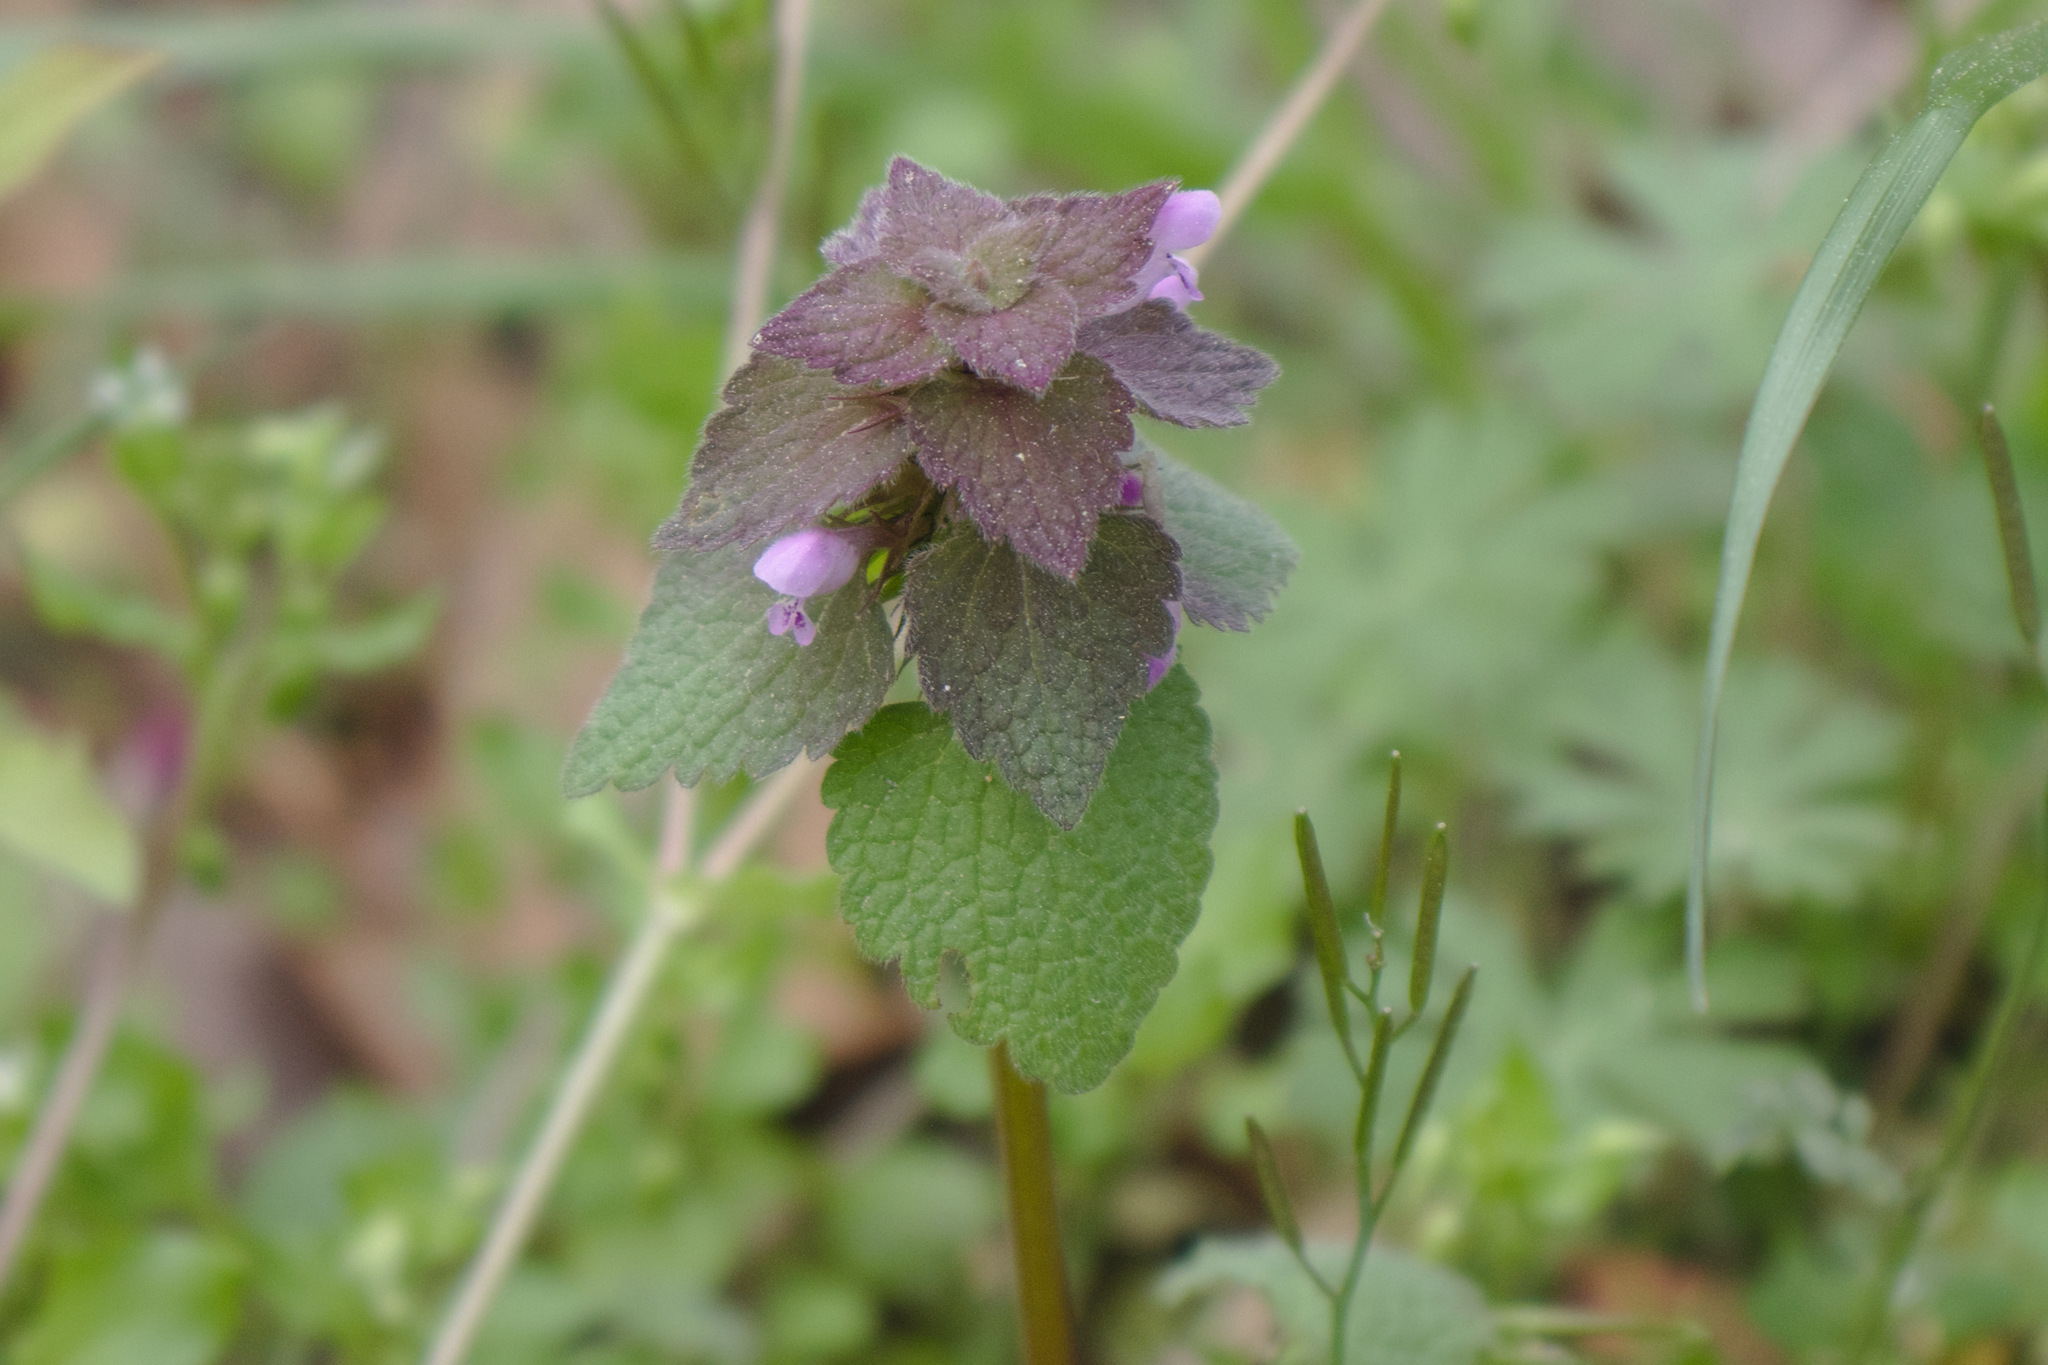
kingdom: Plantae
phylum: Tracheophyta
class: Magnoliopsida
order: Lamiales
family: Lamiaceae
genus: Lamium
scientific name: Lamium purpureum
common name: Red dead-nettle
